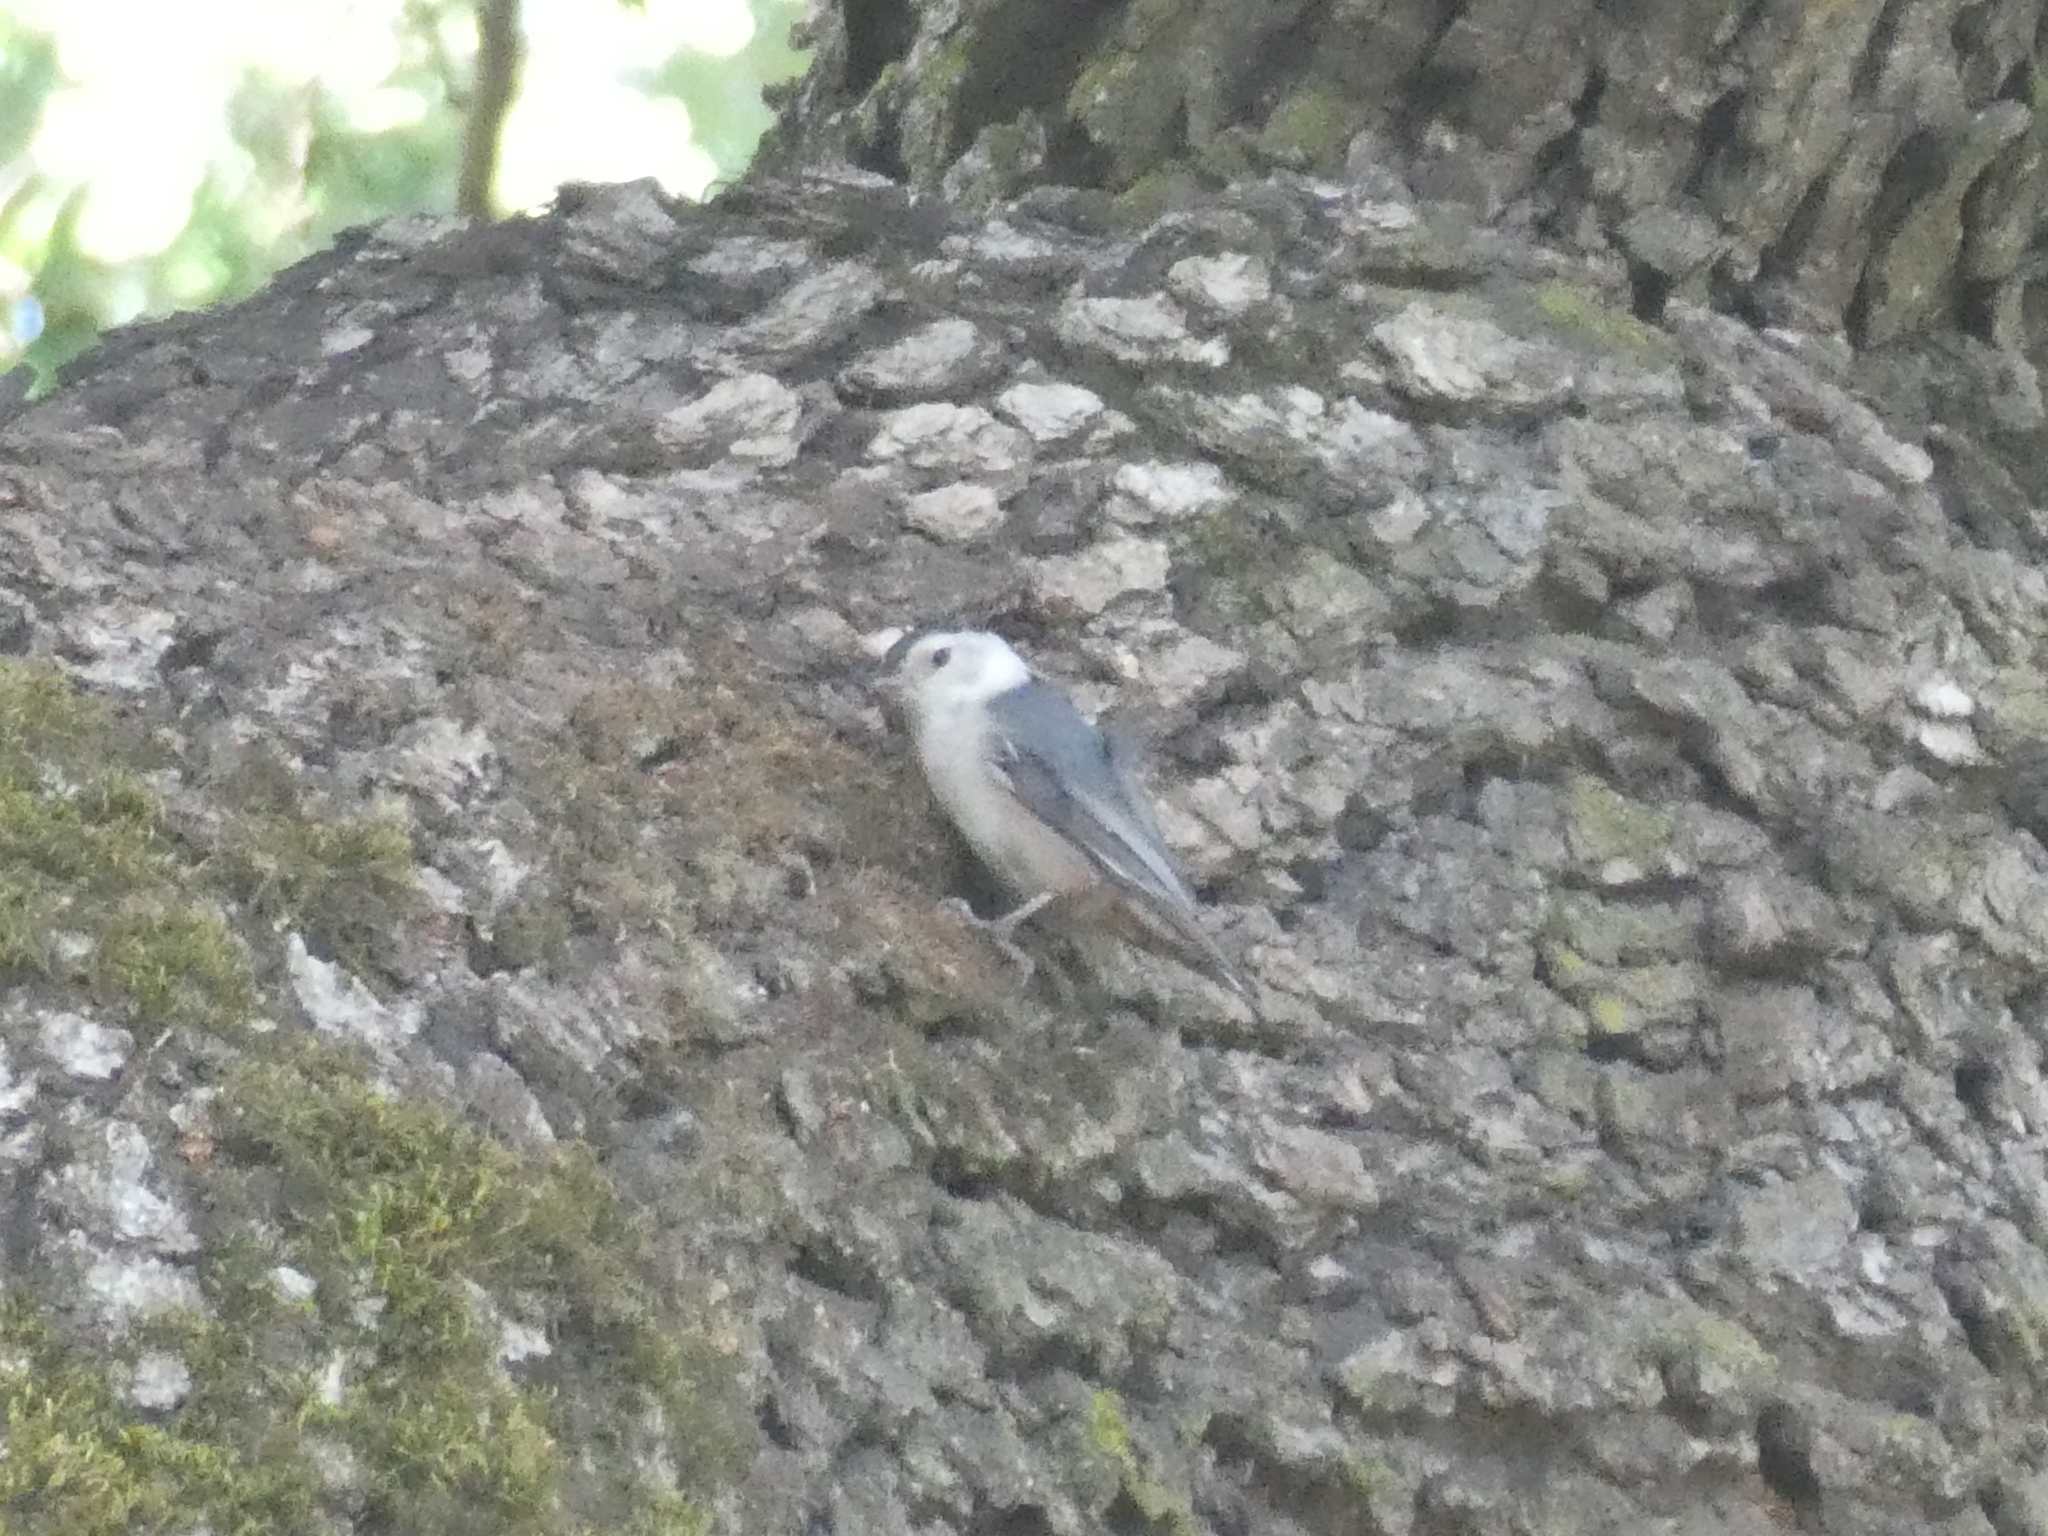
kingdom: Animalia
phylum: Chordata
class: Aves
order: Passeriformes
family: Sittidae
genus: Sitta
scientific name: Sitta carolinensis
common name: White-breasted nuthatch
